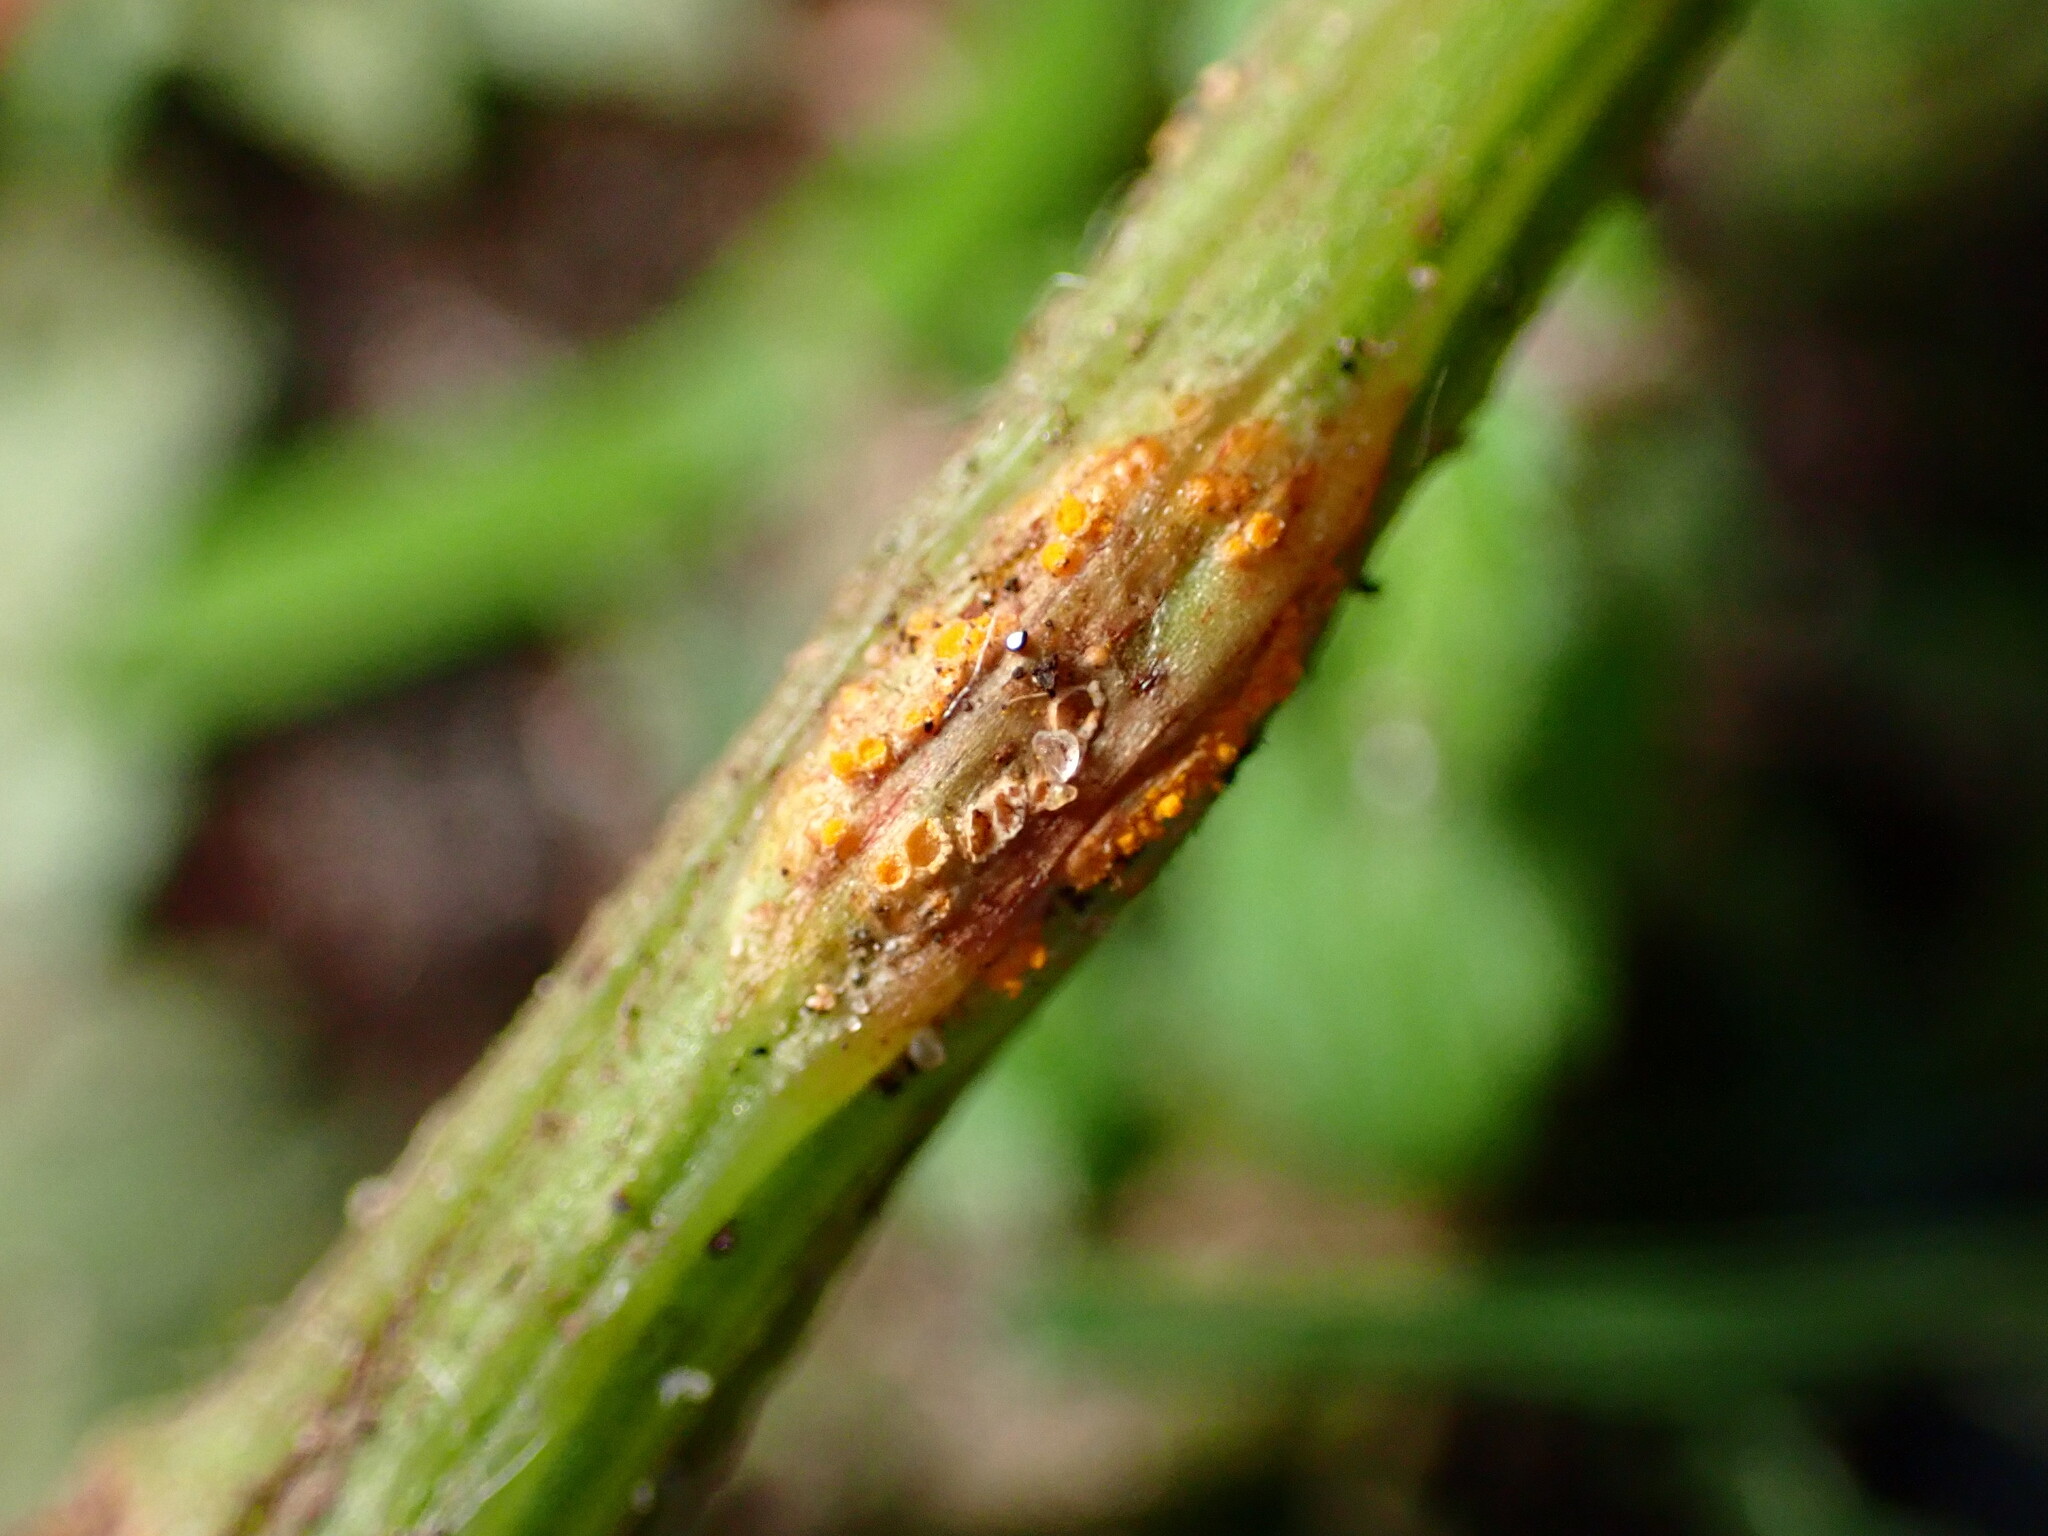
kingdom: Fungi
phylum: Basidiomycota
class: Pucciniomycetes
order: Pucciniales
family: Pucciniaceae
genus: Puccinia
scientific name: Puccinia lagenophorae
